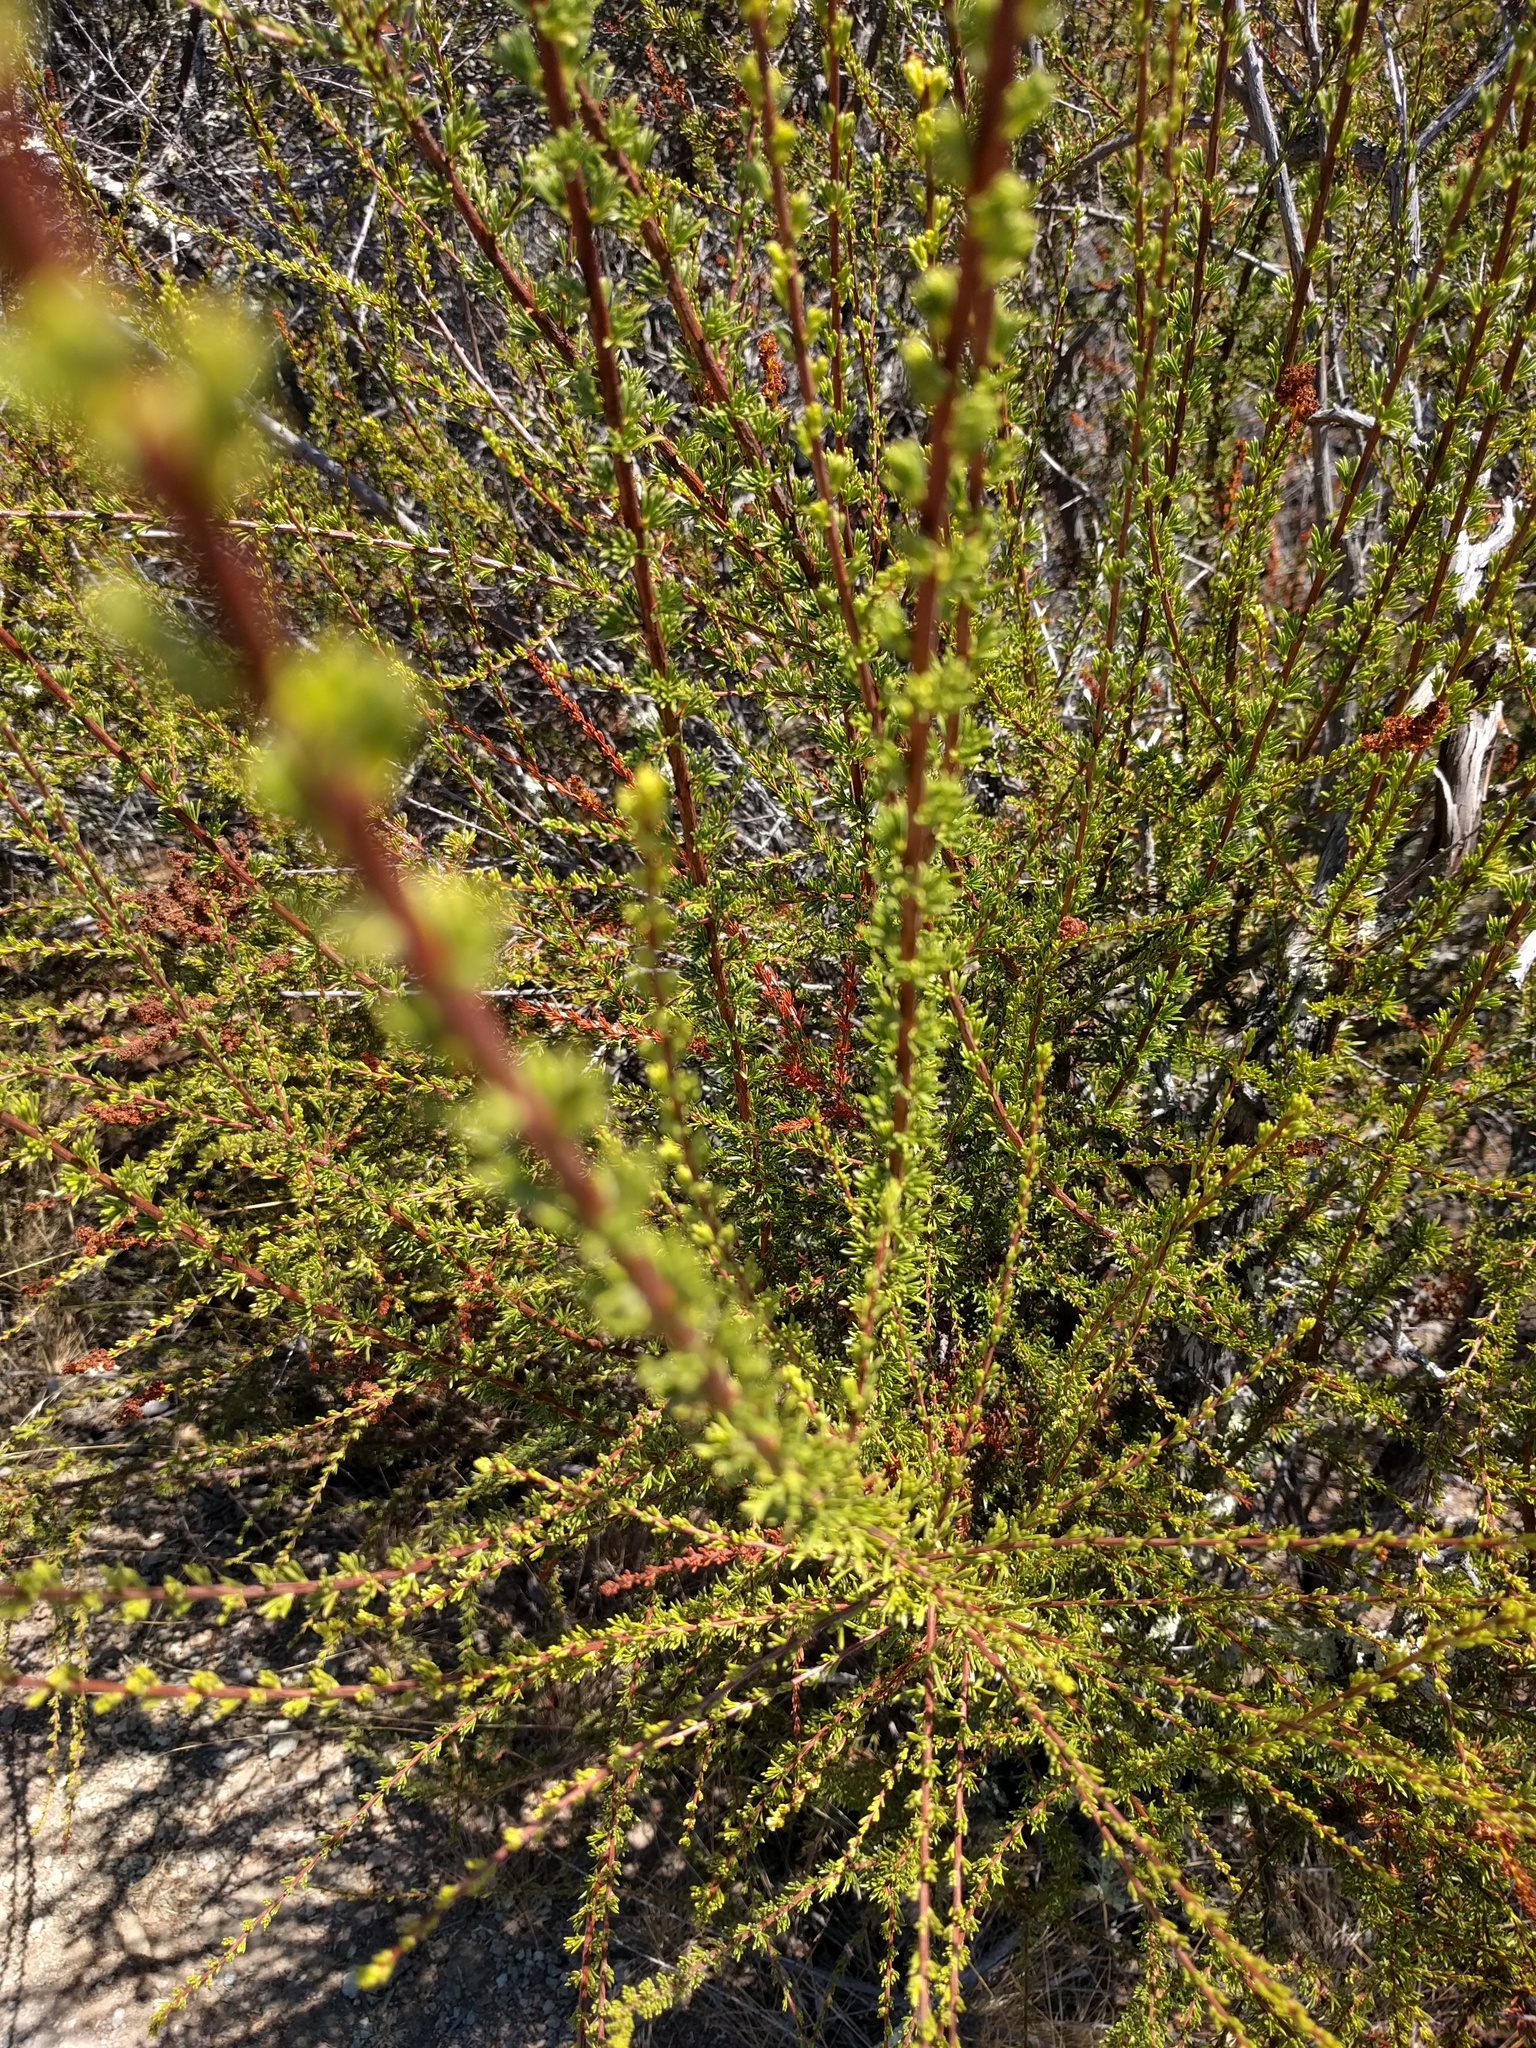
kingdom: Plantae
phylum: Tracheophyta
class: Magnoliopsida
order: Rosales
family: Rosaceae
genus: Adenostoma
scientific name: Adenostoma fasciculatum
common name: Chamise
